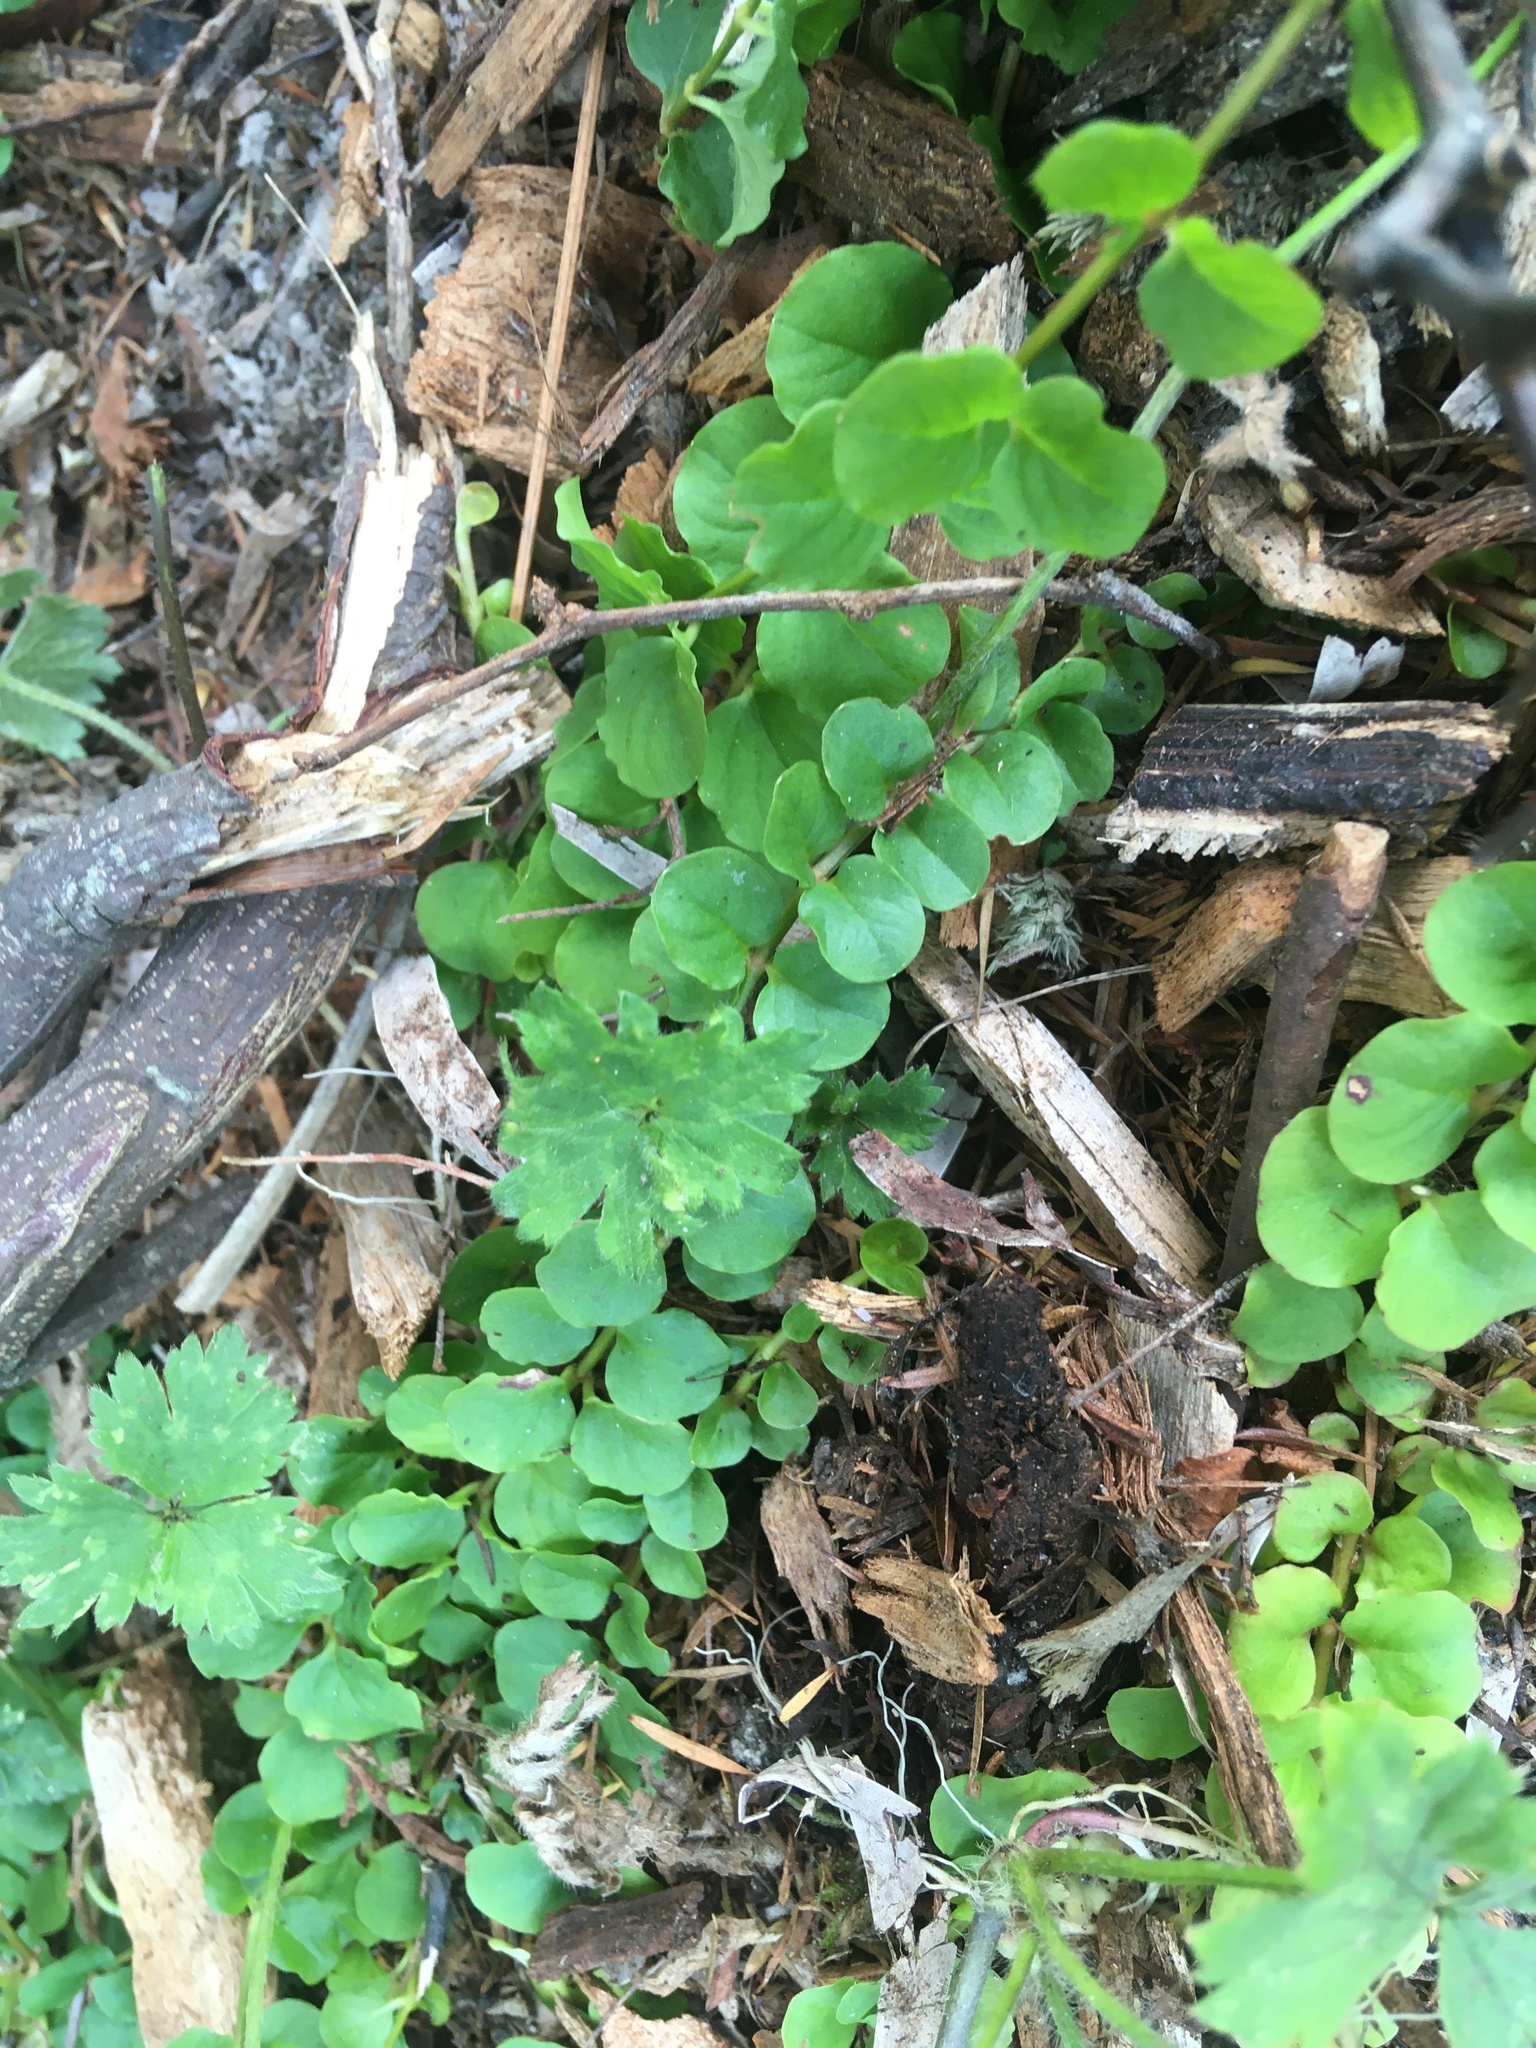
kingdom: Plantae
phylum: Tracheophyta
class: Magnoliopsida
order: Ericales
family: Primulaceae
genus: Lysimachia
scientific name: Lysimachia nummularia
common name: Moneywort
